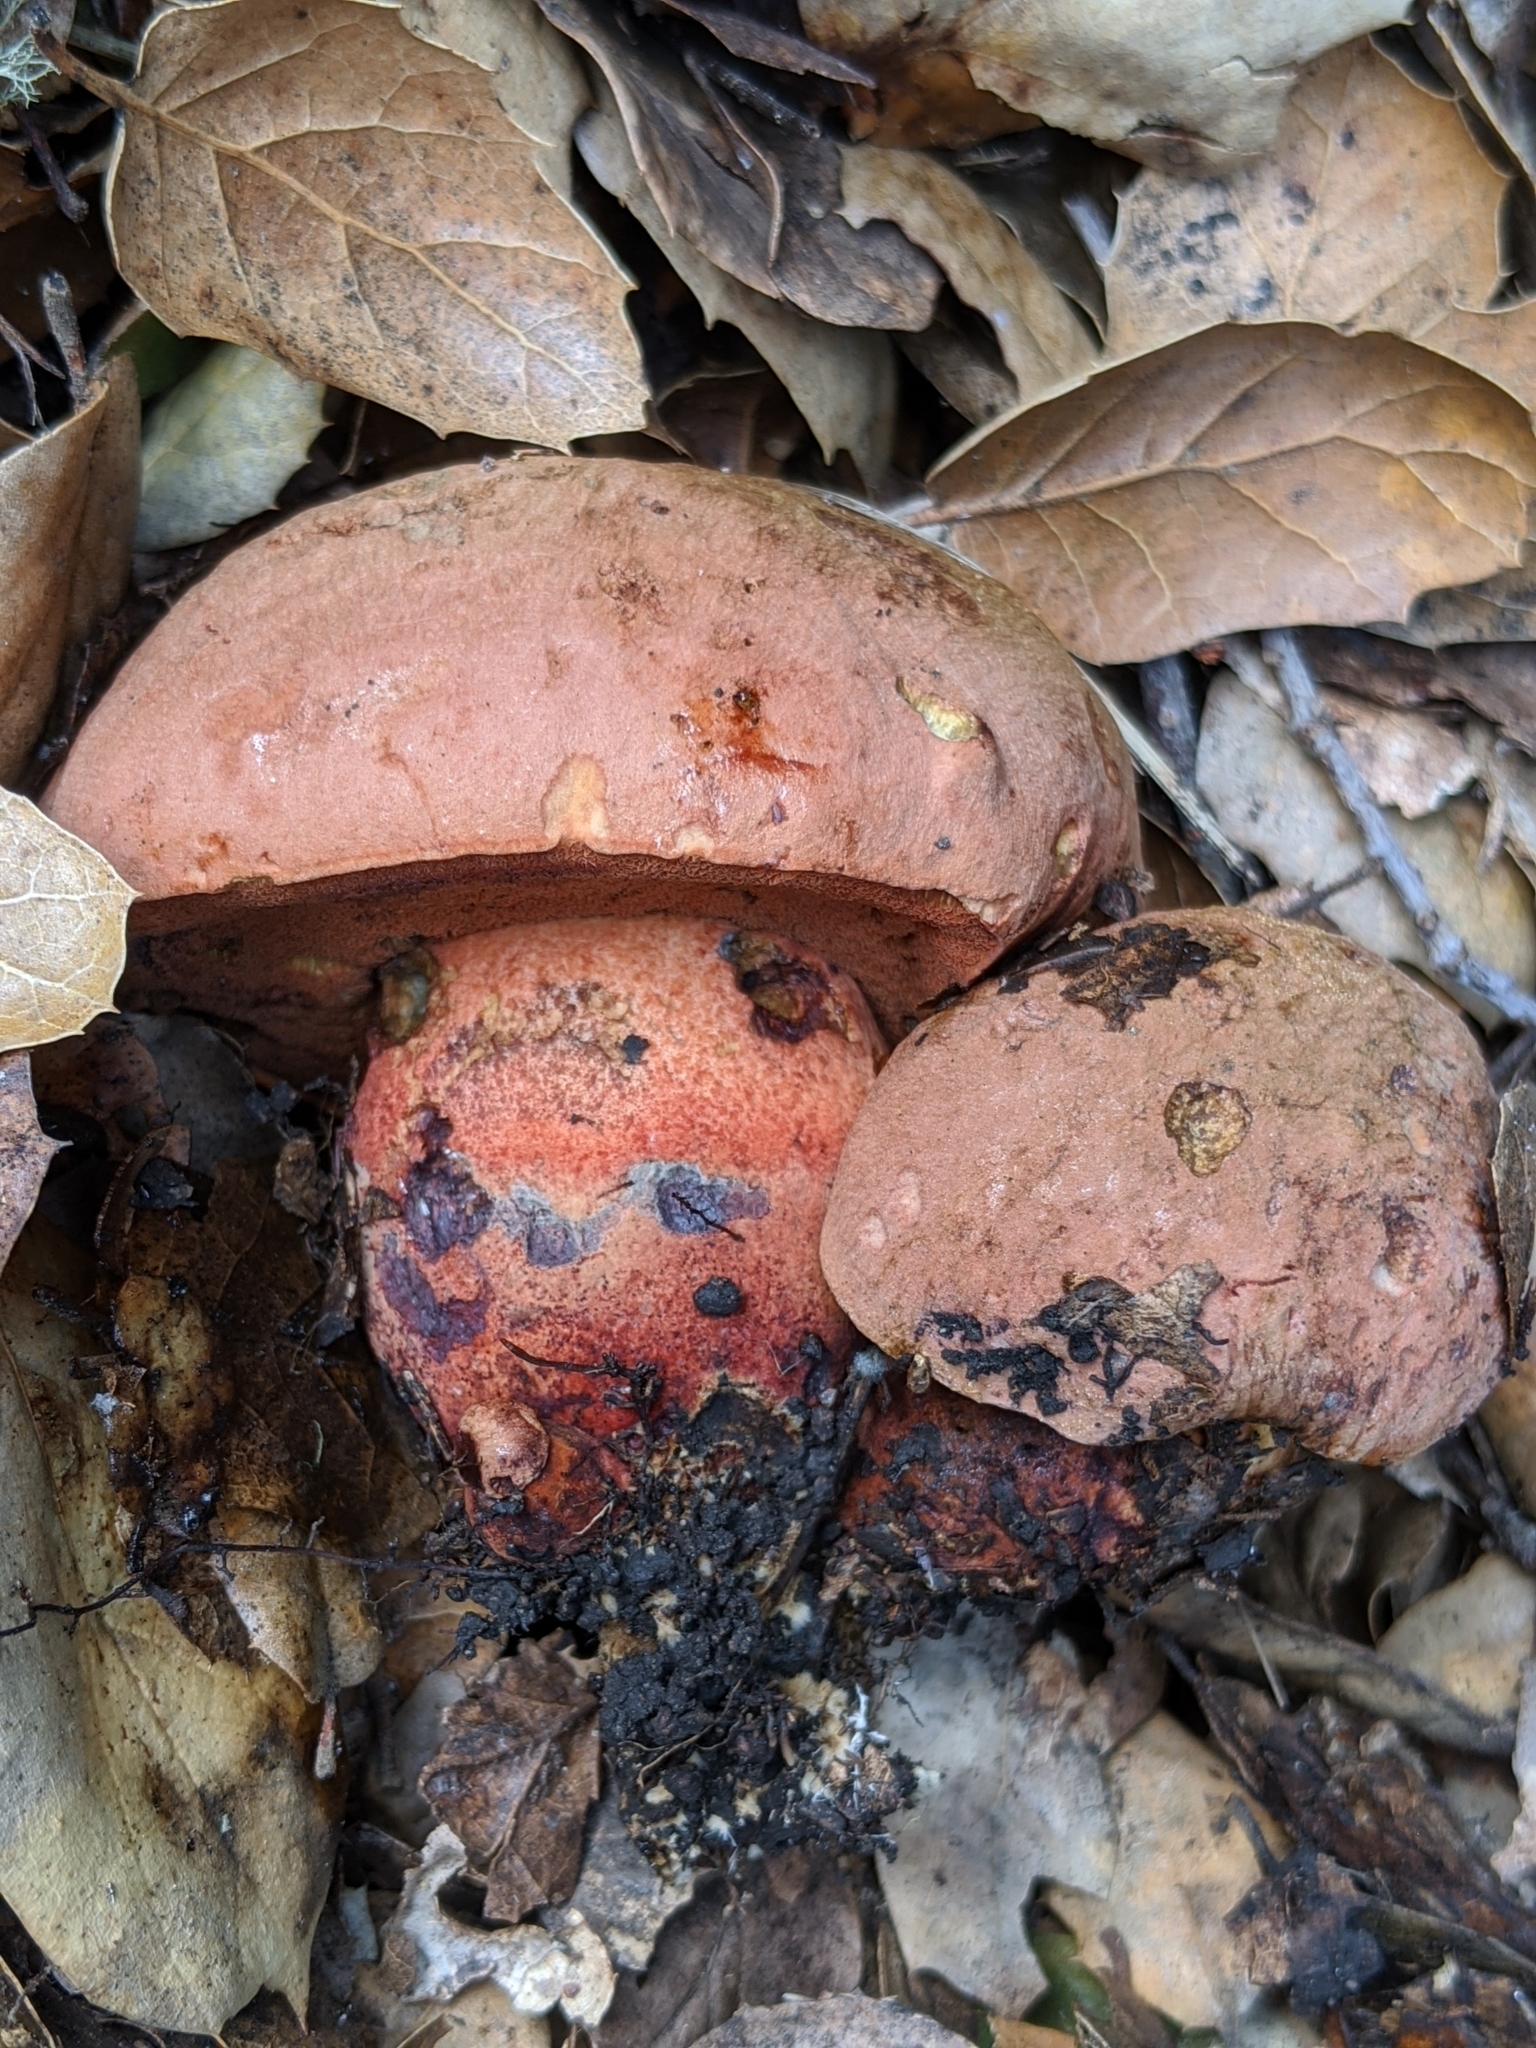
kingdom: Fungi
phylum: Basidiomycota
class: Agaricomycetes
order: Boletales
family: Boletaceae
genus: Suillellus
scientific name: Suillellus amygdalinus
